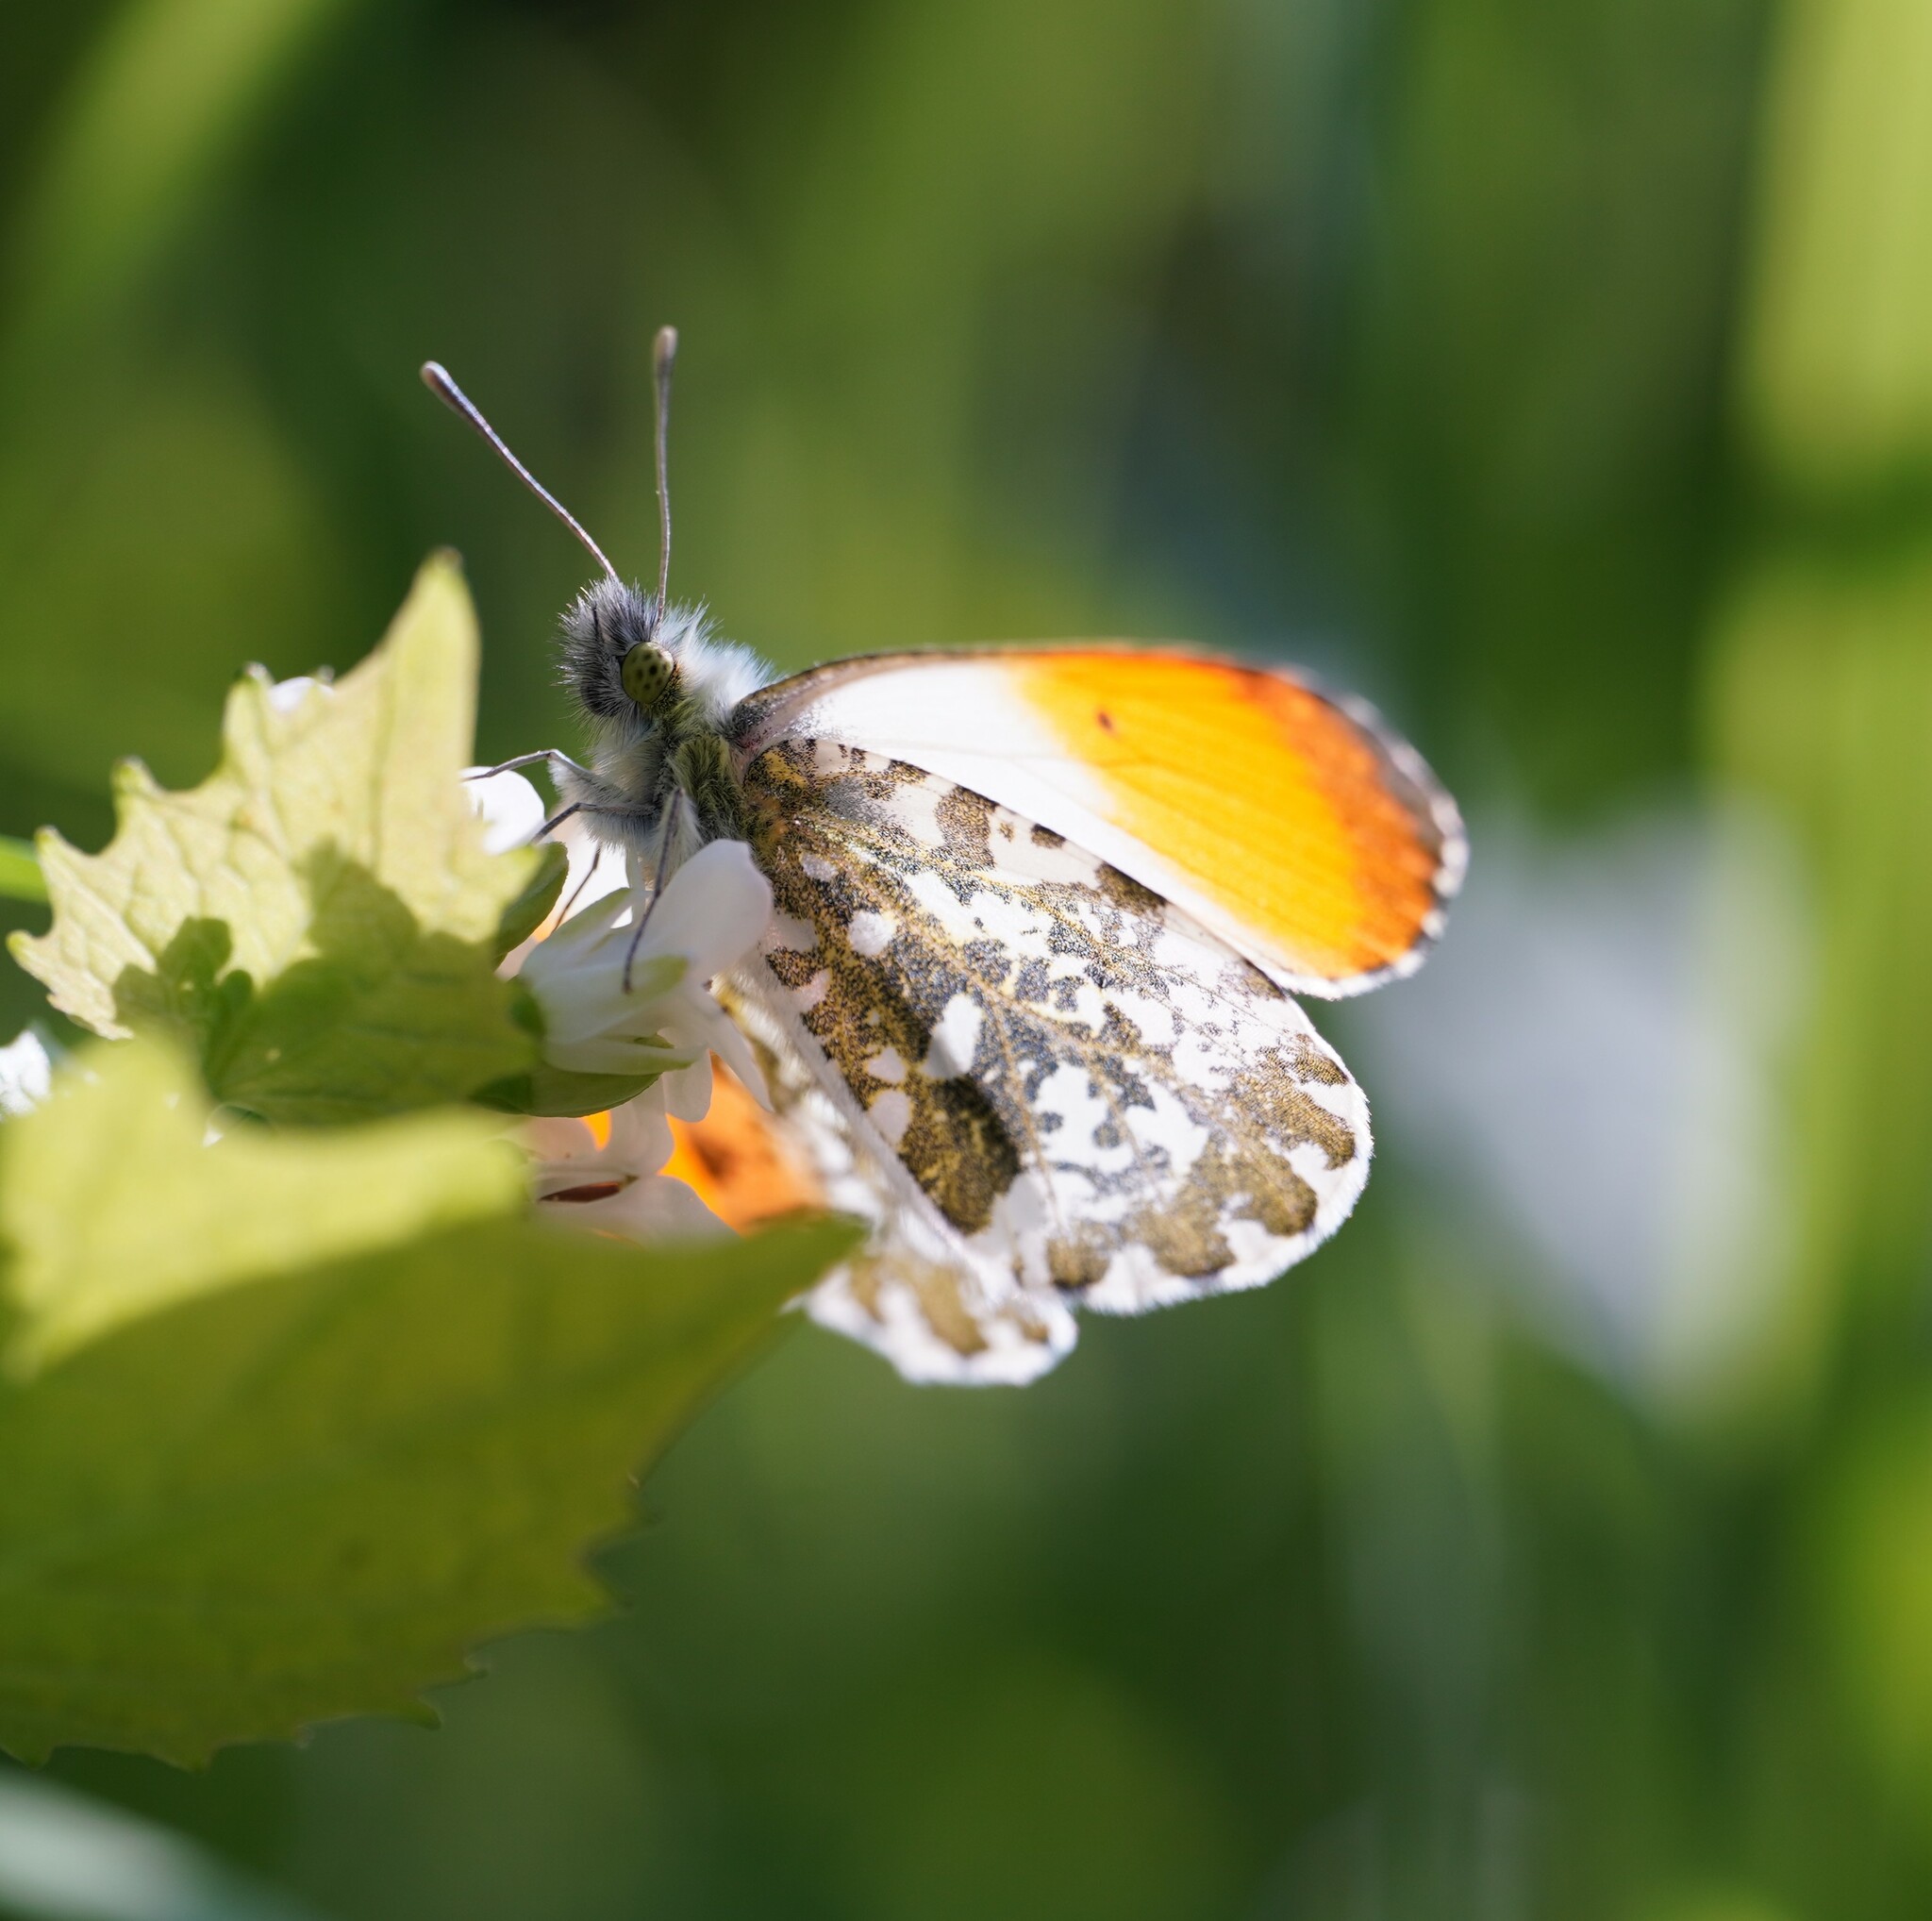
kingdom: Animalia
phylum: Arthropoda
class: Insecta
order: Lepidoptera
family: Pieridae
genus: Anthocharis
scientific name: Anthocharis cardamines
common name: Orange-tip
